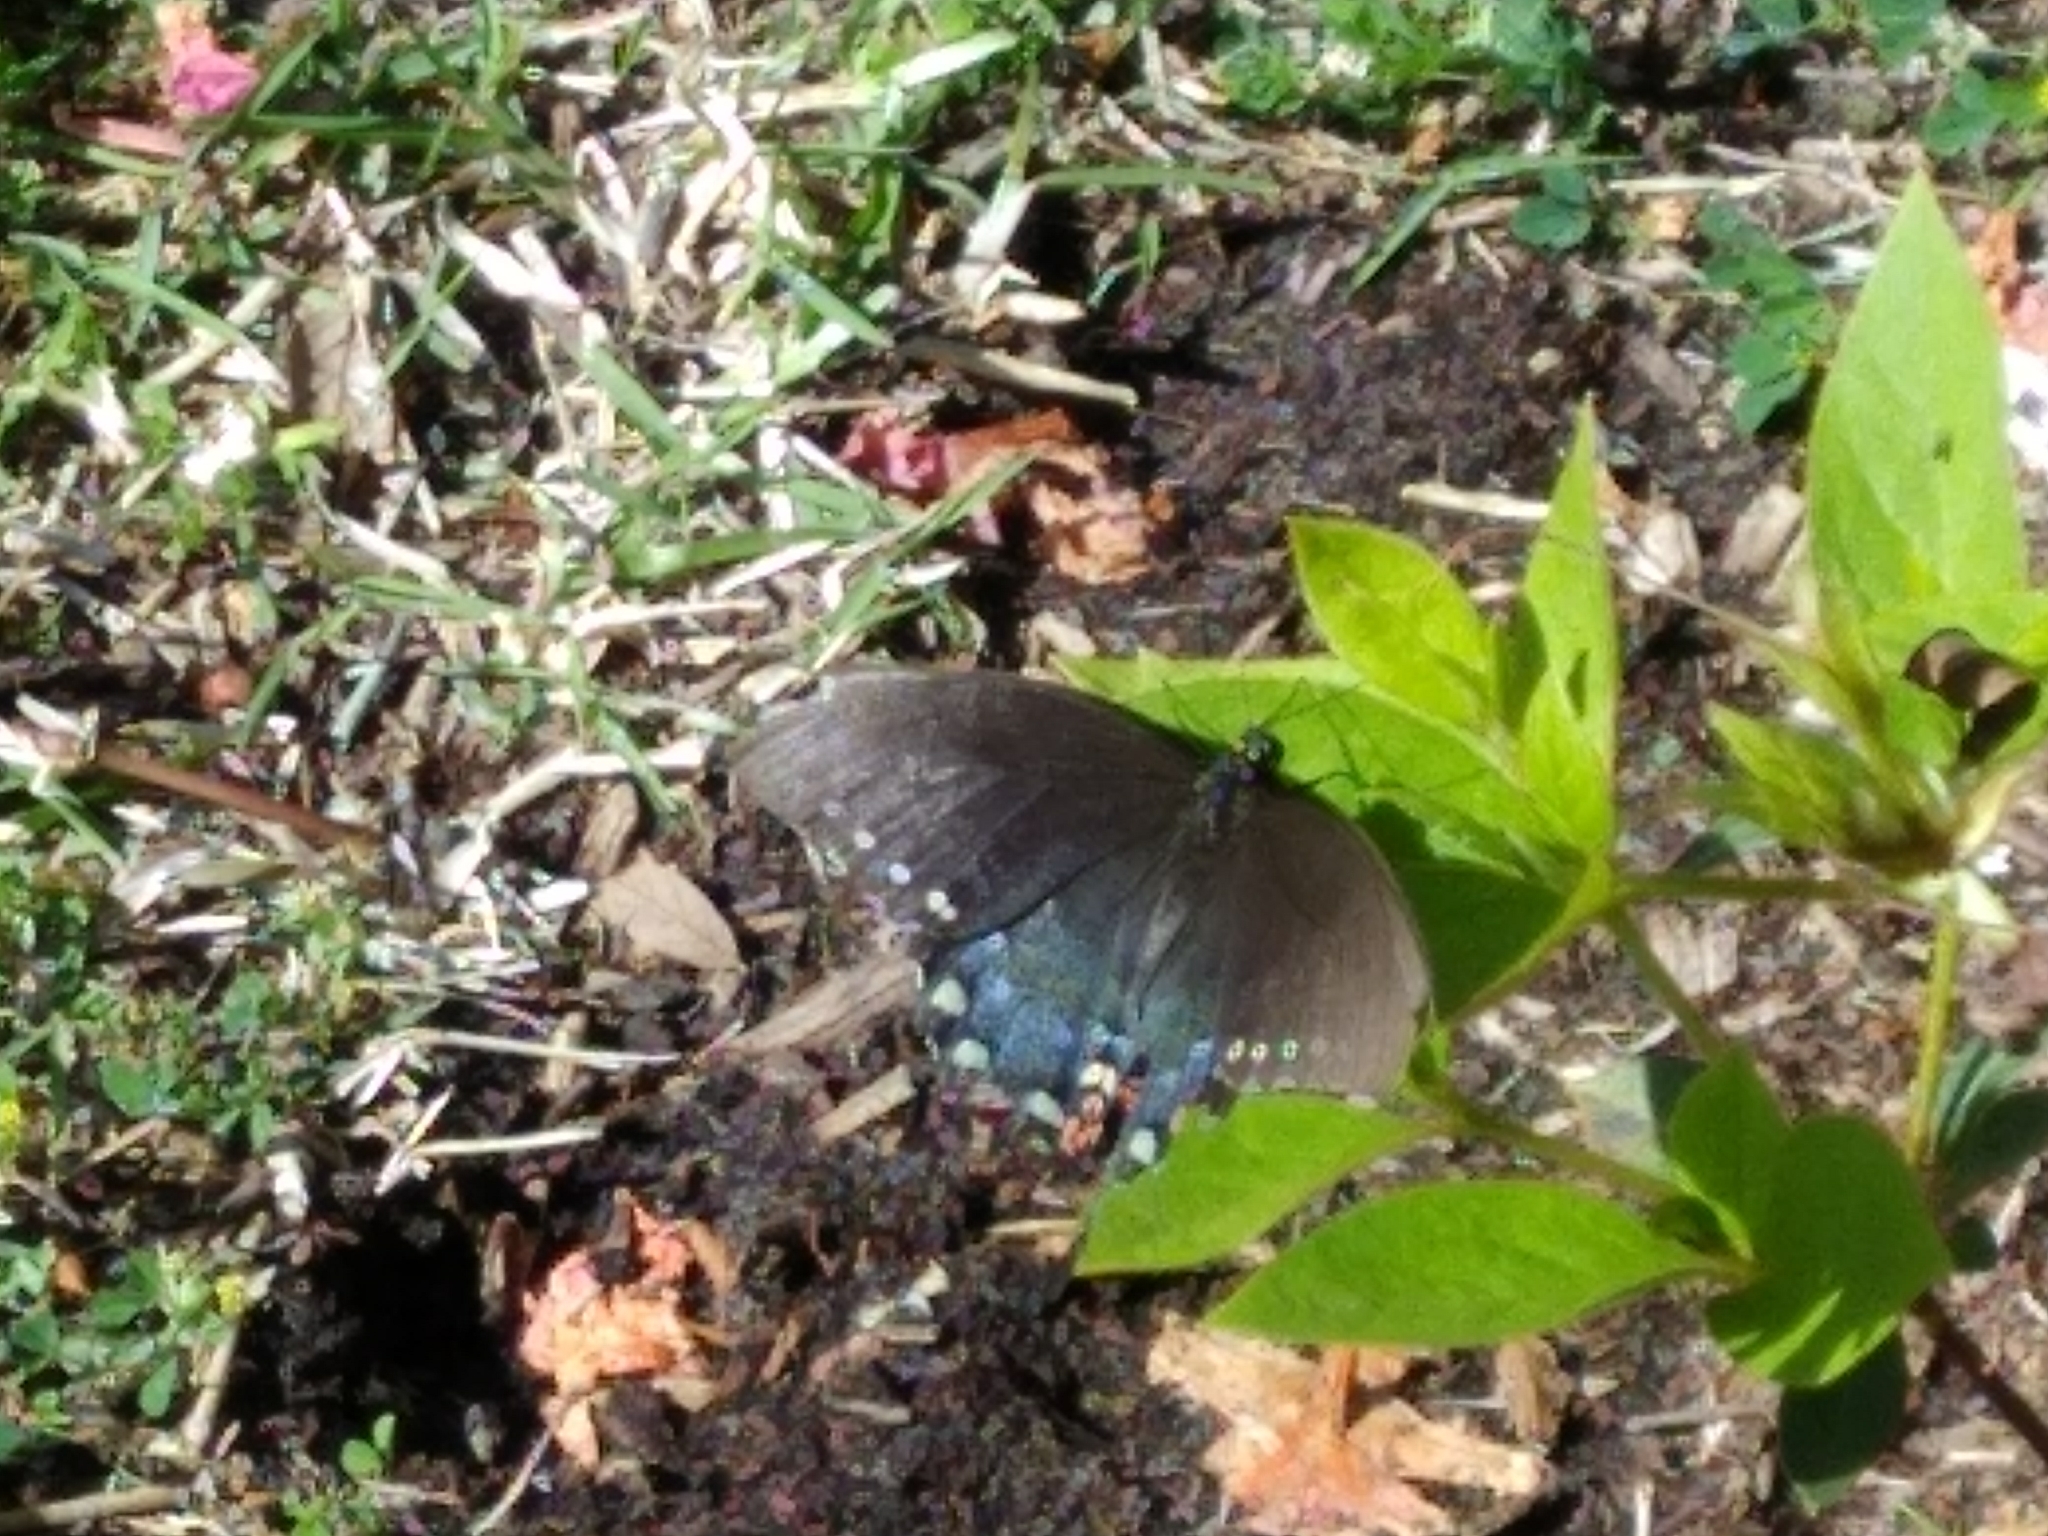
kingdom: Animalia
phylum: Arthropoda
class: Insecta
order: Lepidoptera
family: Papilionidae
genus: Papilio
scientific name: Papilio troilus
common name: Spicebush swallowtail
